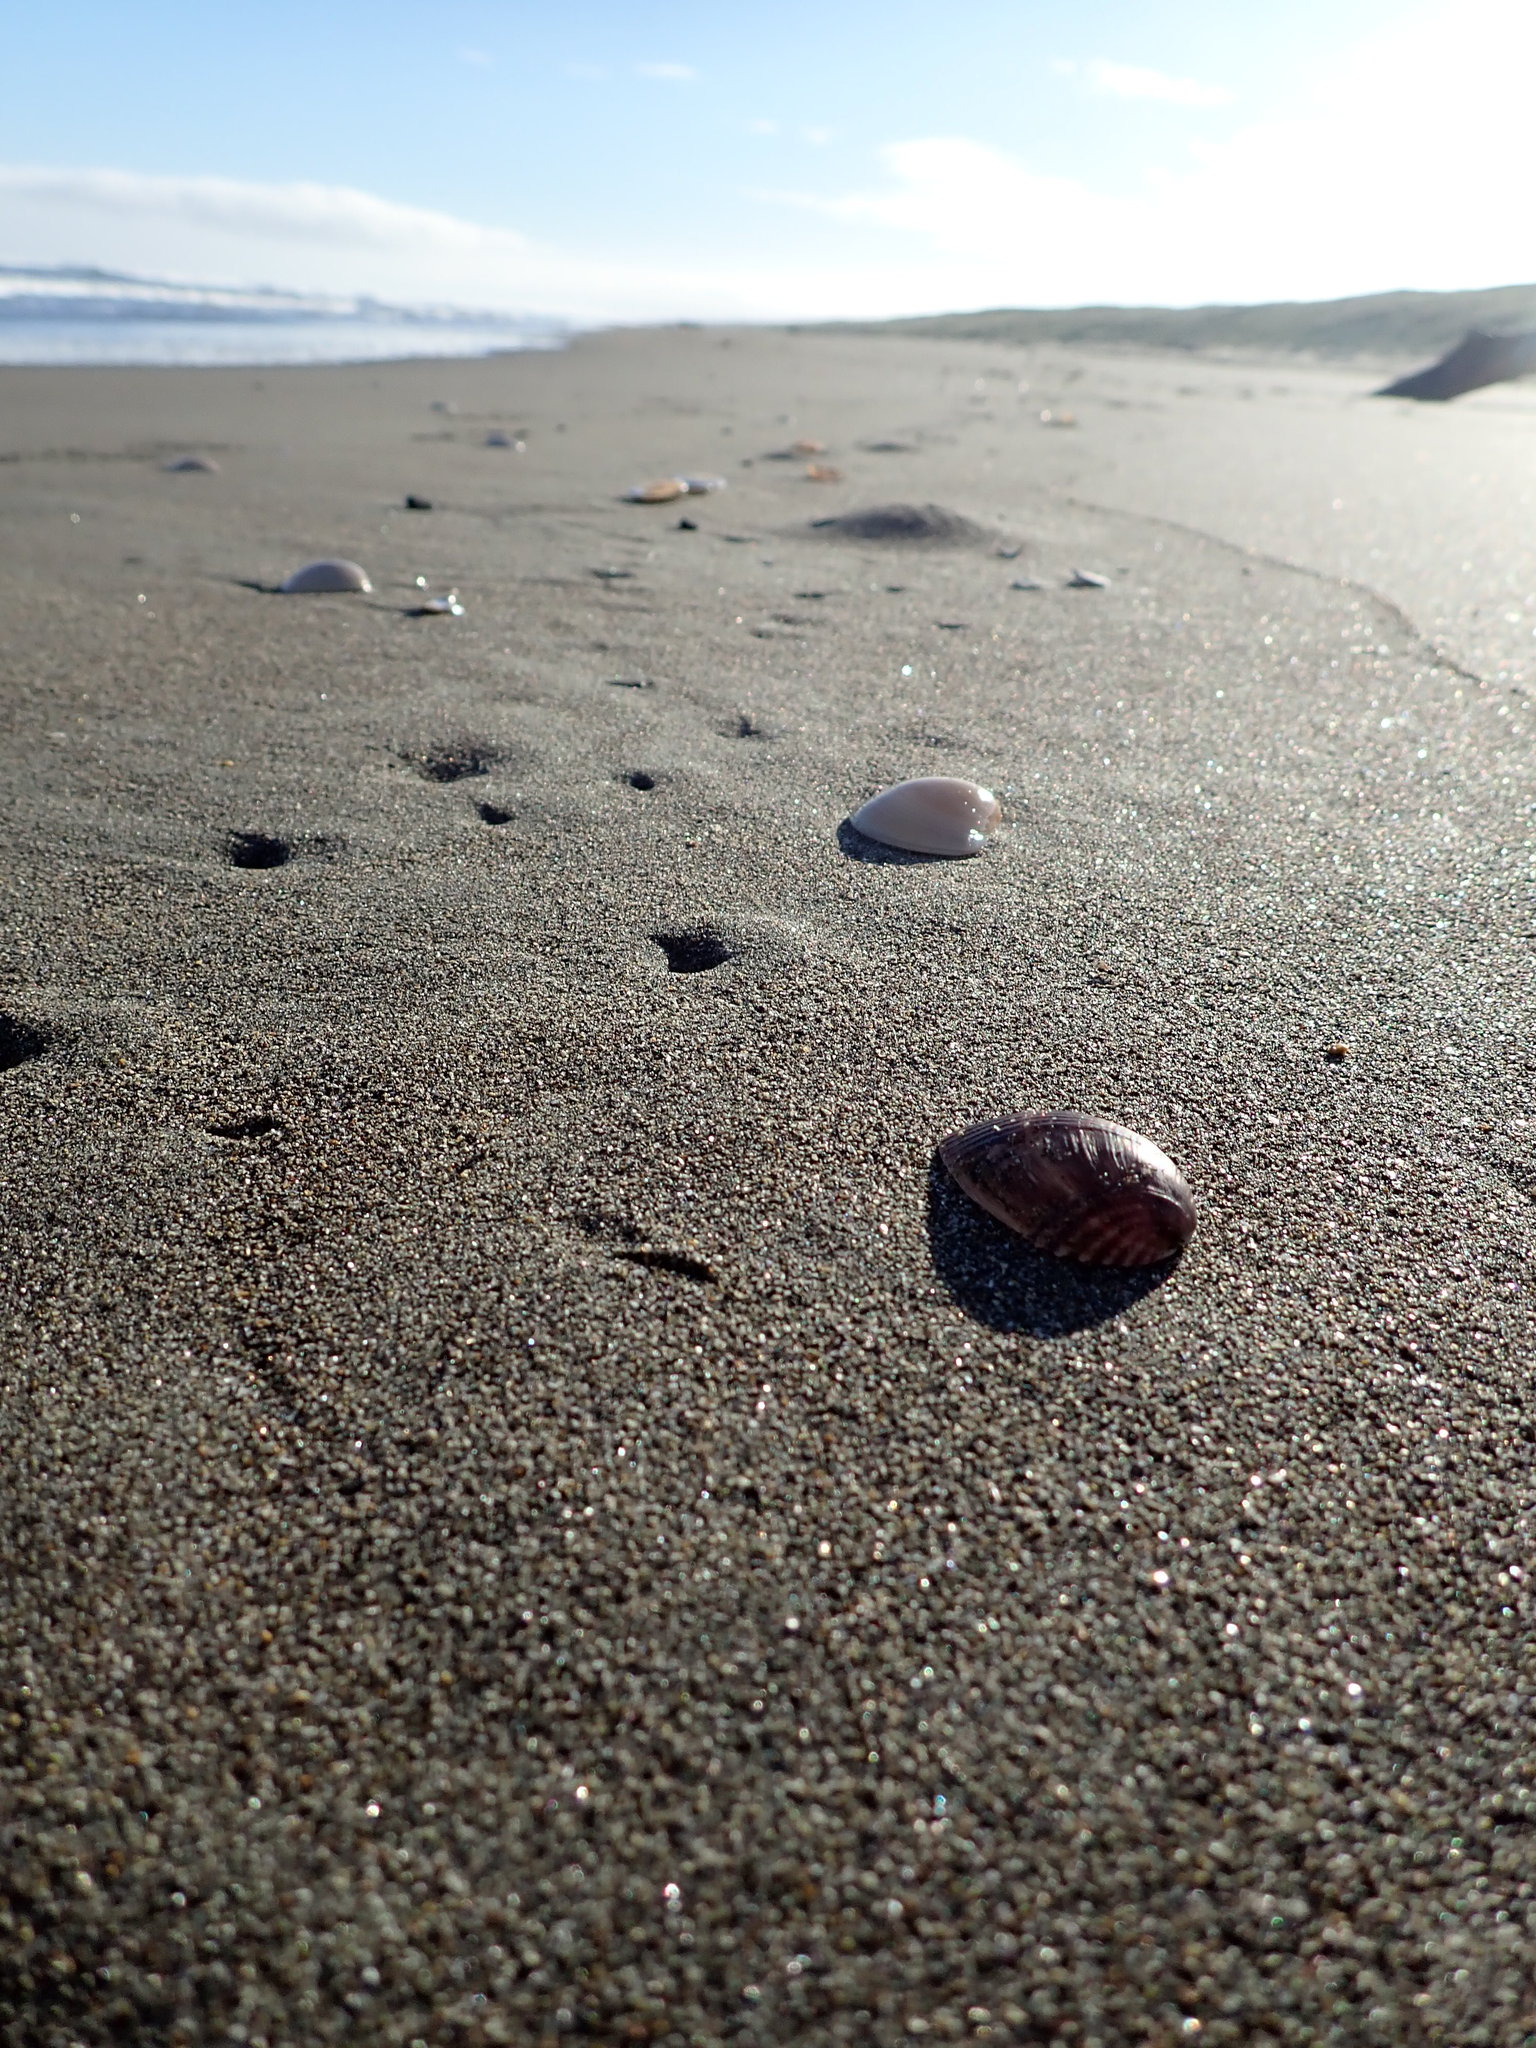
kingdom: Animalia
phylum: Mollusca
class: Bivalvia
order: Mytilida
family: Mytilidae
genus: Musculus
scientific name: Musculus impactus
